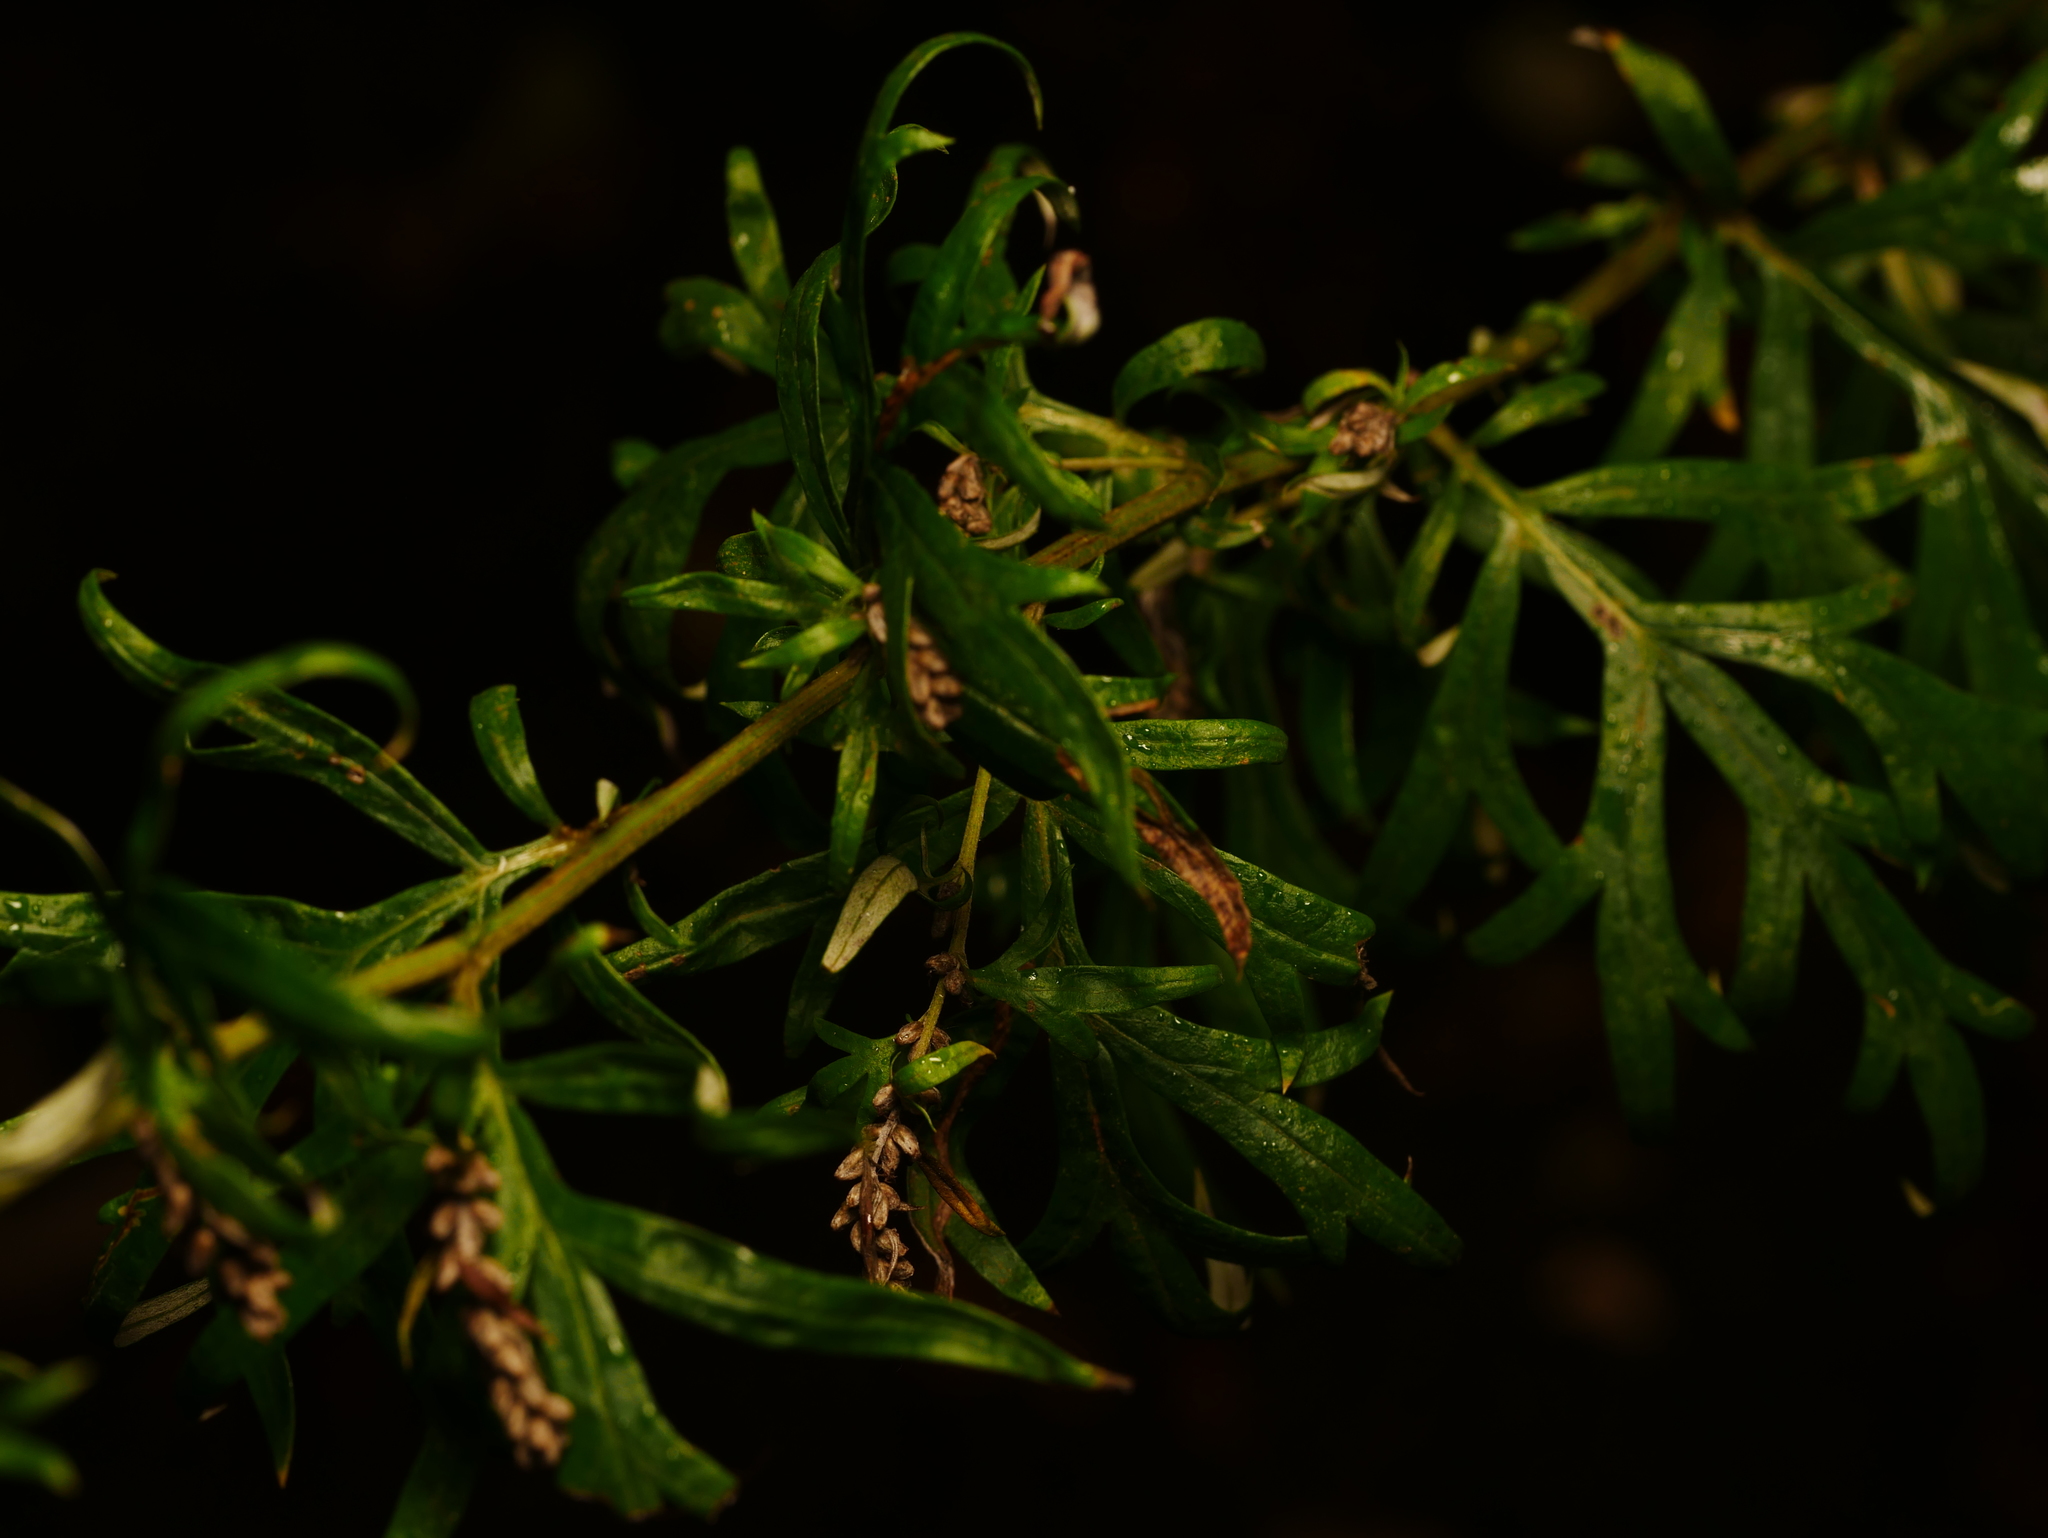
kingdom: Plantae
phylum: Tracheophyta
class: Magnoliopsida
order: Asterales
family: Asteraceae
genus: Artemisia
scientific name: Artemisia vulgaris
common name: Mugwort
